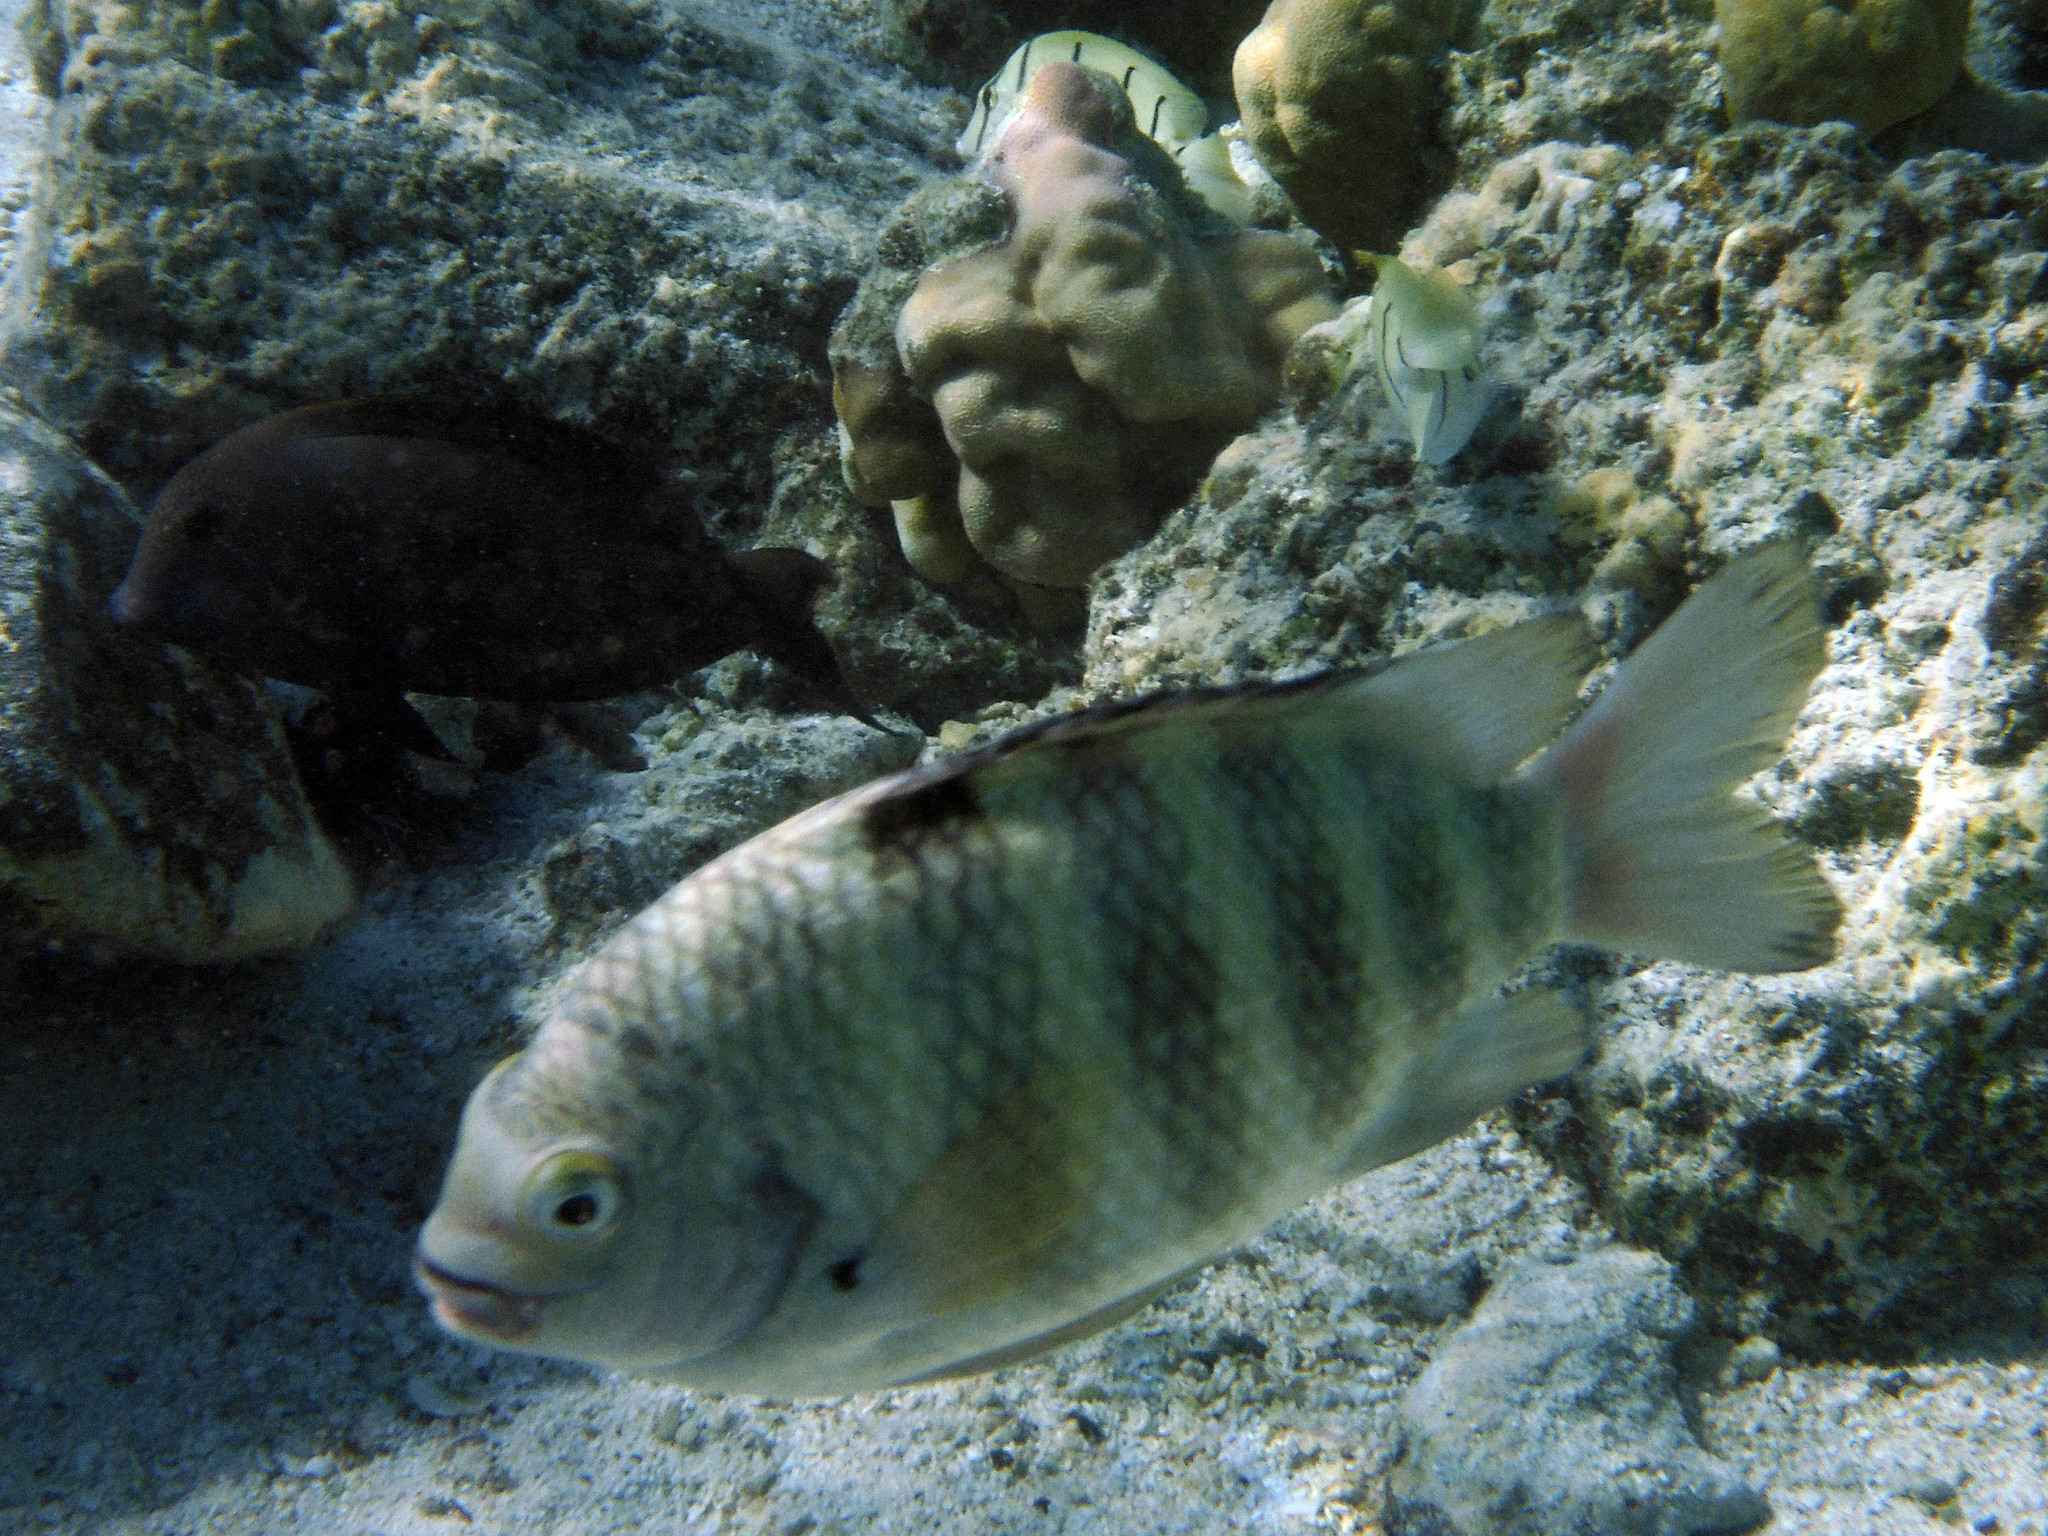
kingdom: Animalia
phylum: Chordata
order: Perciformes
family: Pomacentridae
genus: Abudefduf
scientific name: Abudefduf septemfasciatus
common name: Banded sergeant
